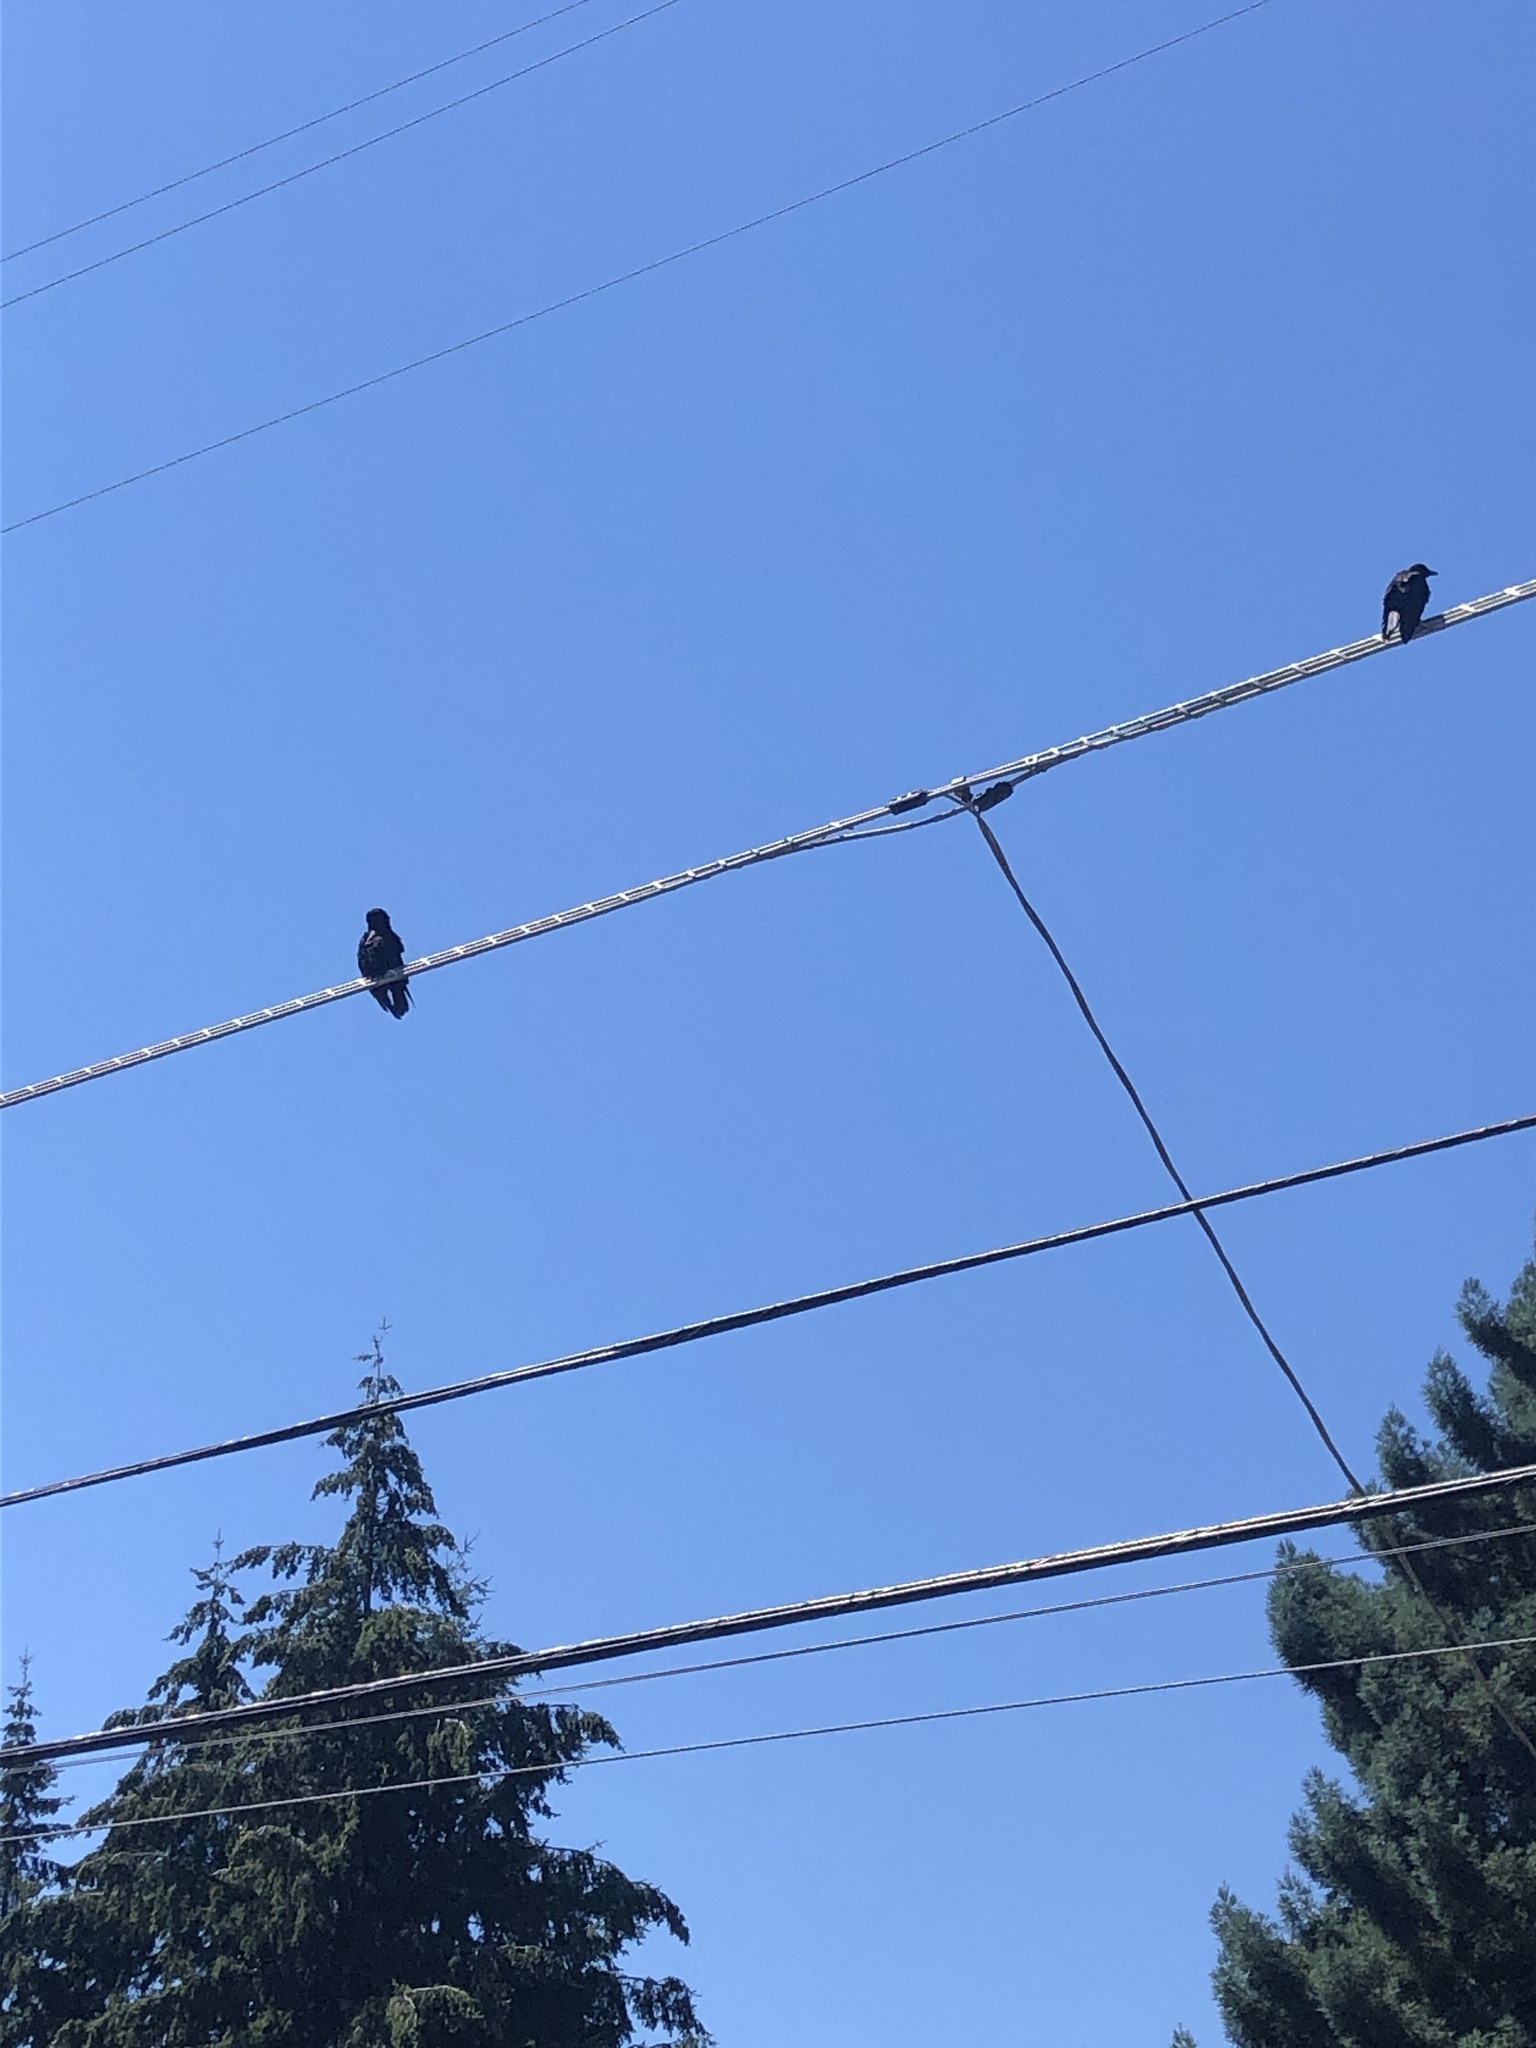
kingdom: Animalia
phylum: Chordata
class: Aves
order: Passeriformes
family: Corvidae
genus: Corvus
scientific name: Corvus brachyrhynchos
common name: American crow
